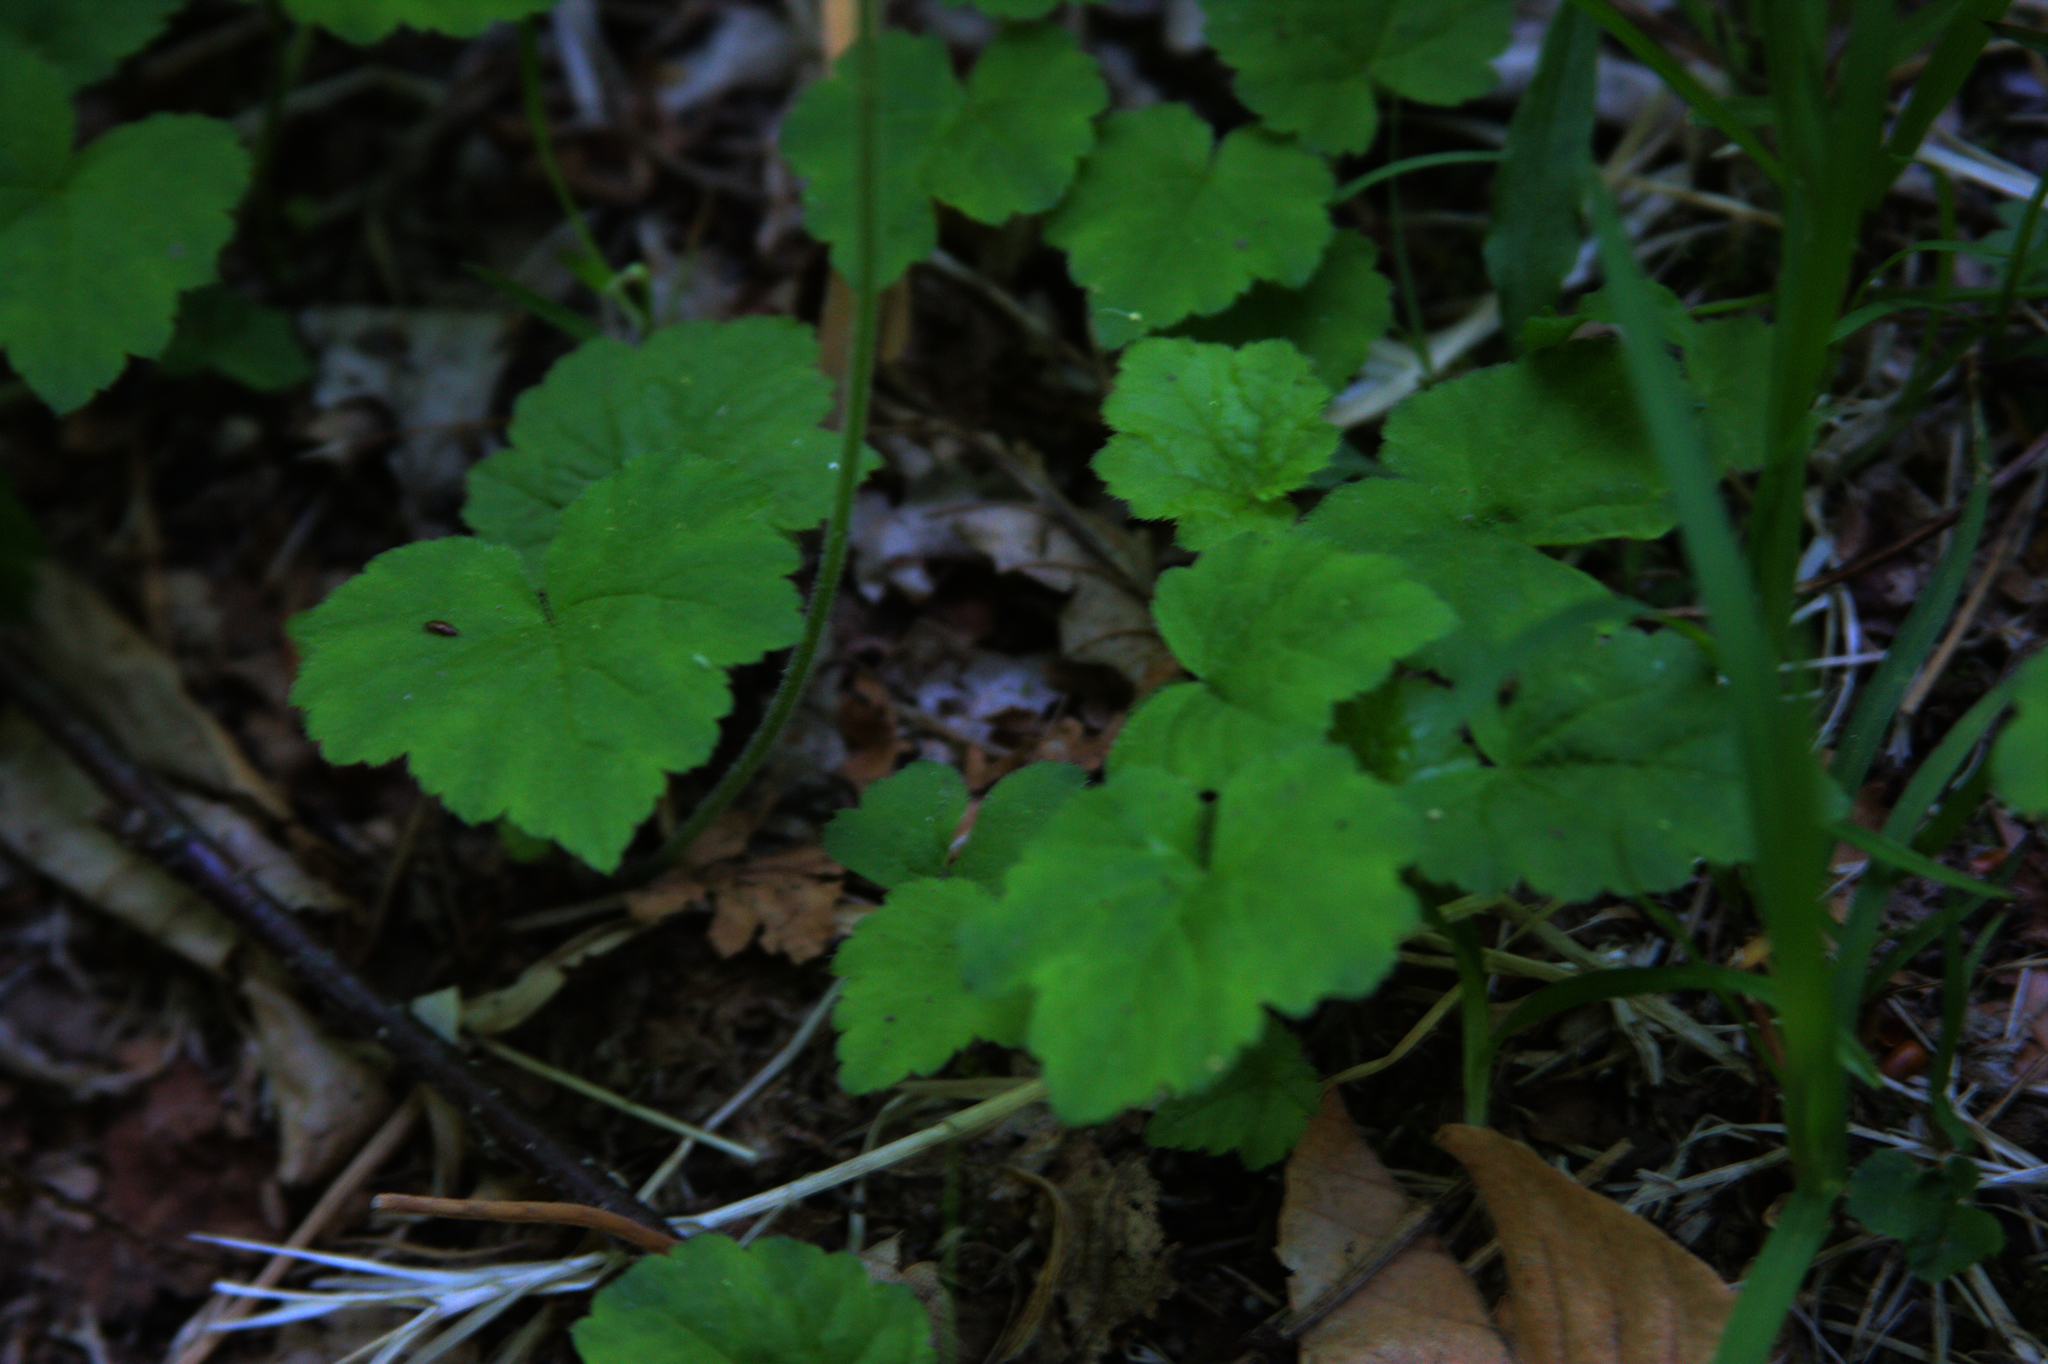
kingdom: Plantae
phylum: Tracheophyta
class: Magnoliopsida
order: Saxifragales
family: Saxifragaceae
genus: Tiarella
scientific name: Tiarella stolonifera
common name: Stoloniferous foamflower
